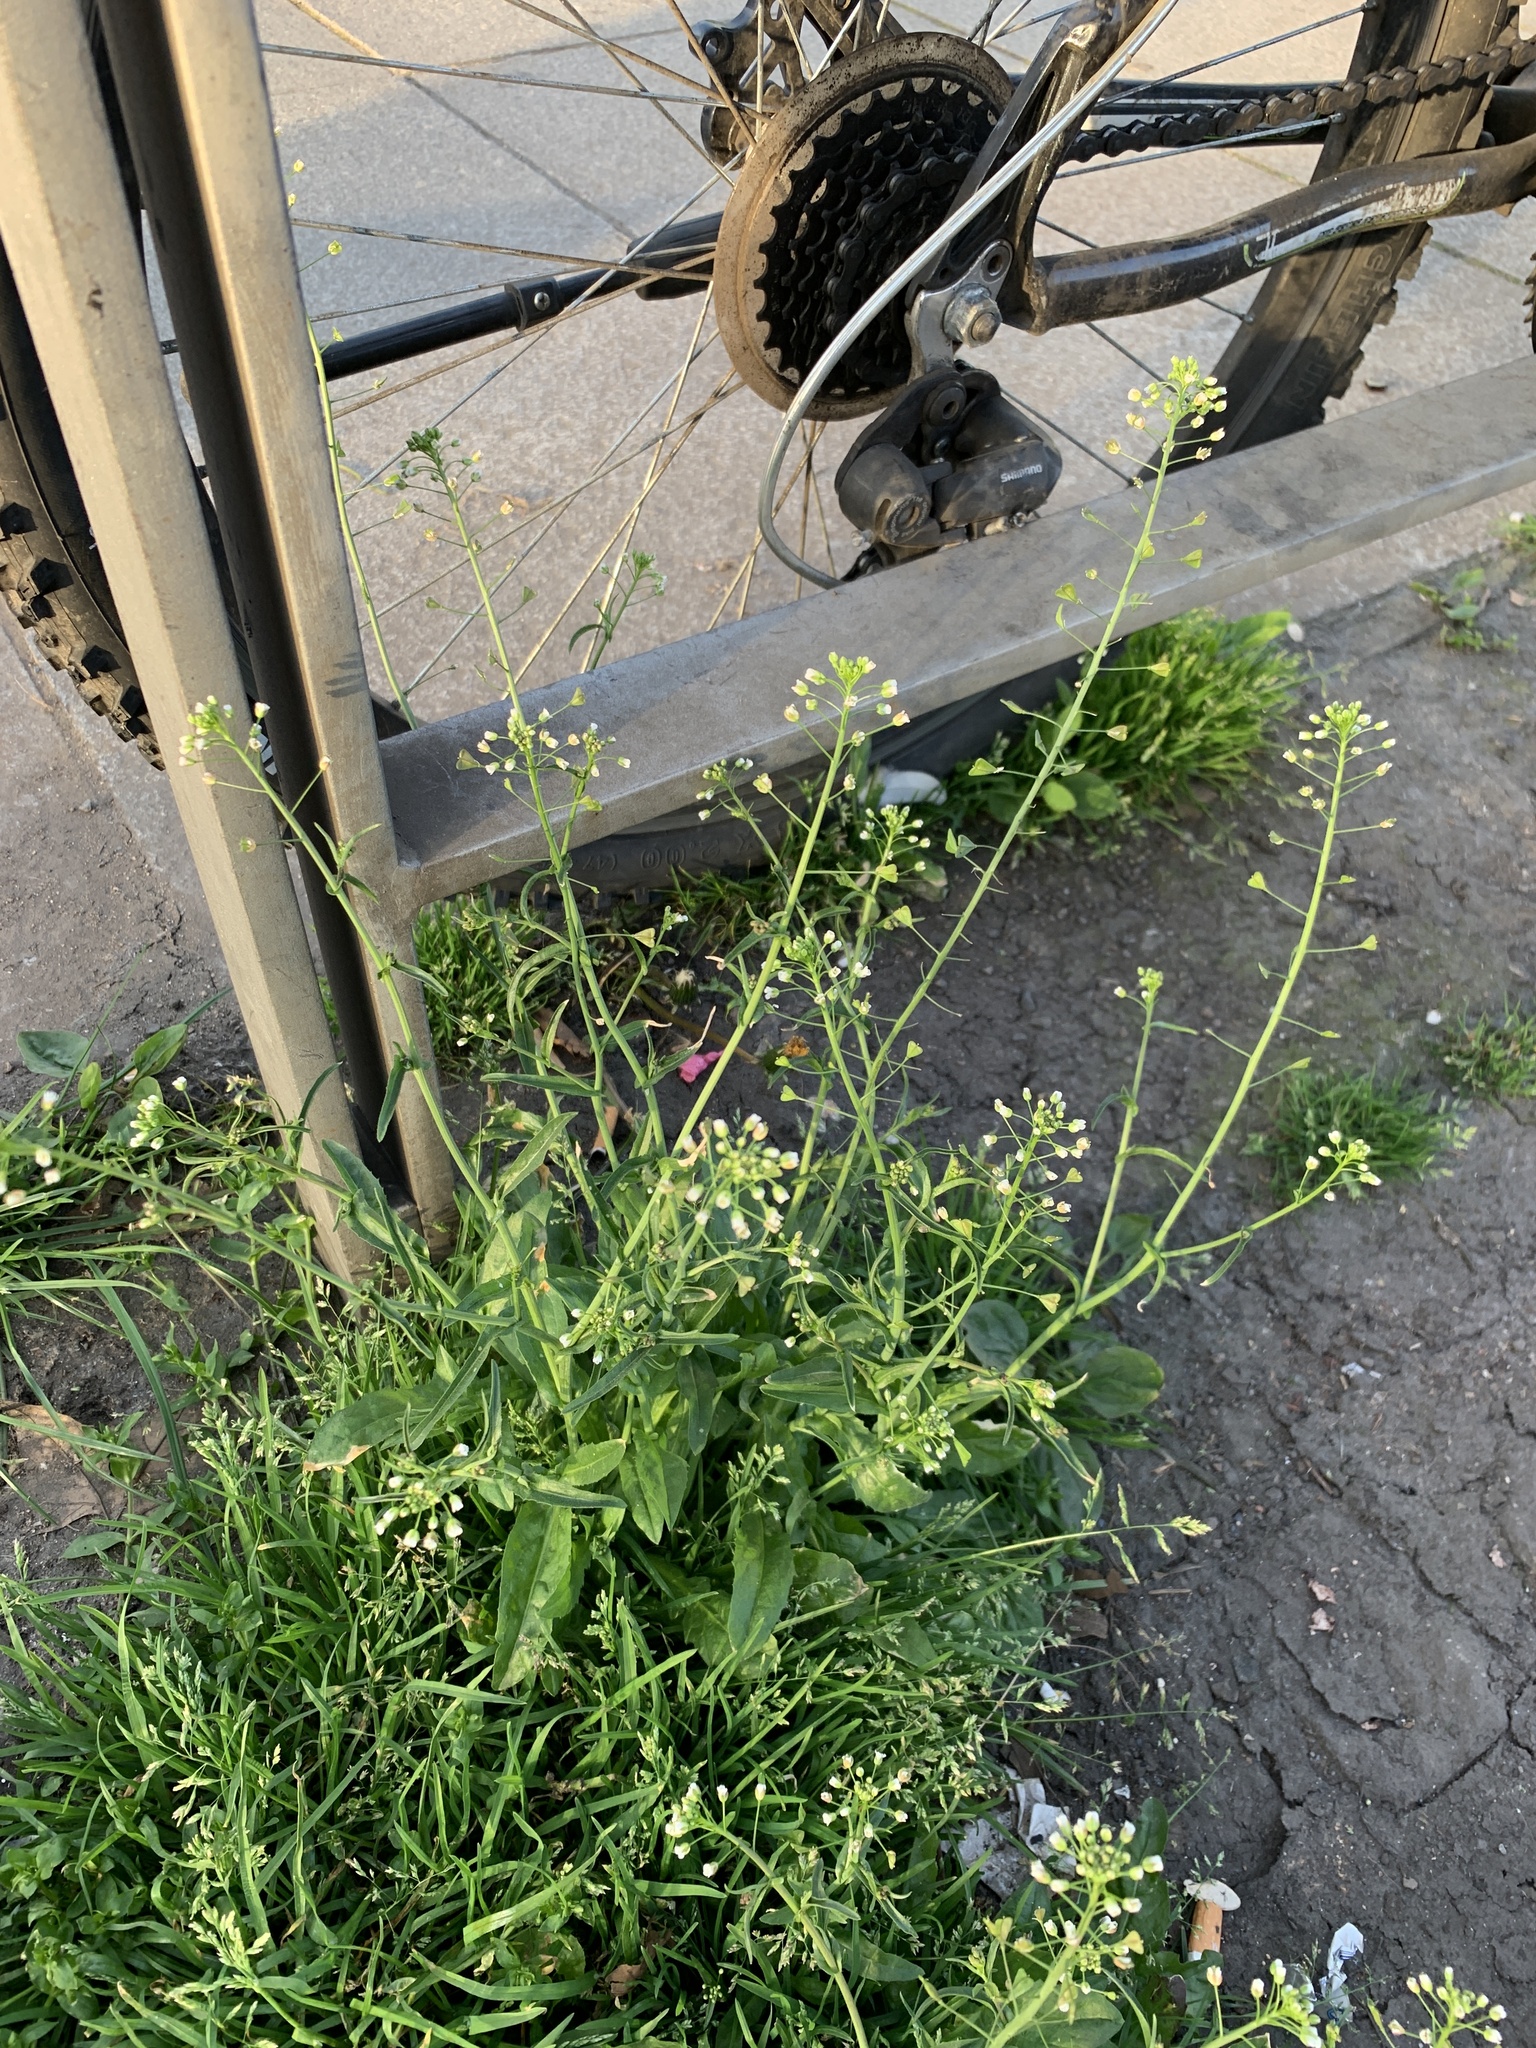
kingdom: Plantae
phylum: Tracheophyta
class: Magnoliopsida
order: Brassicales
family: Brassicaceae
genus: Capsella
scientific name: Capsella bursa-pastoris
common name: Shepherd's purse
